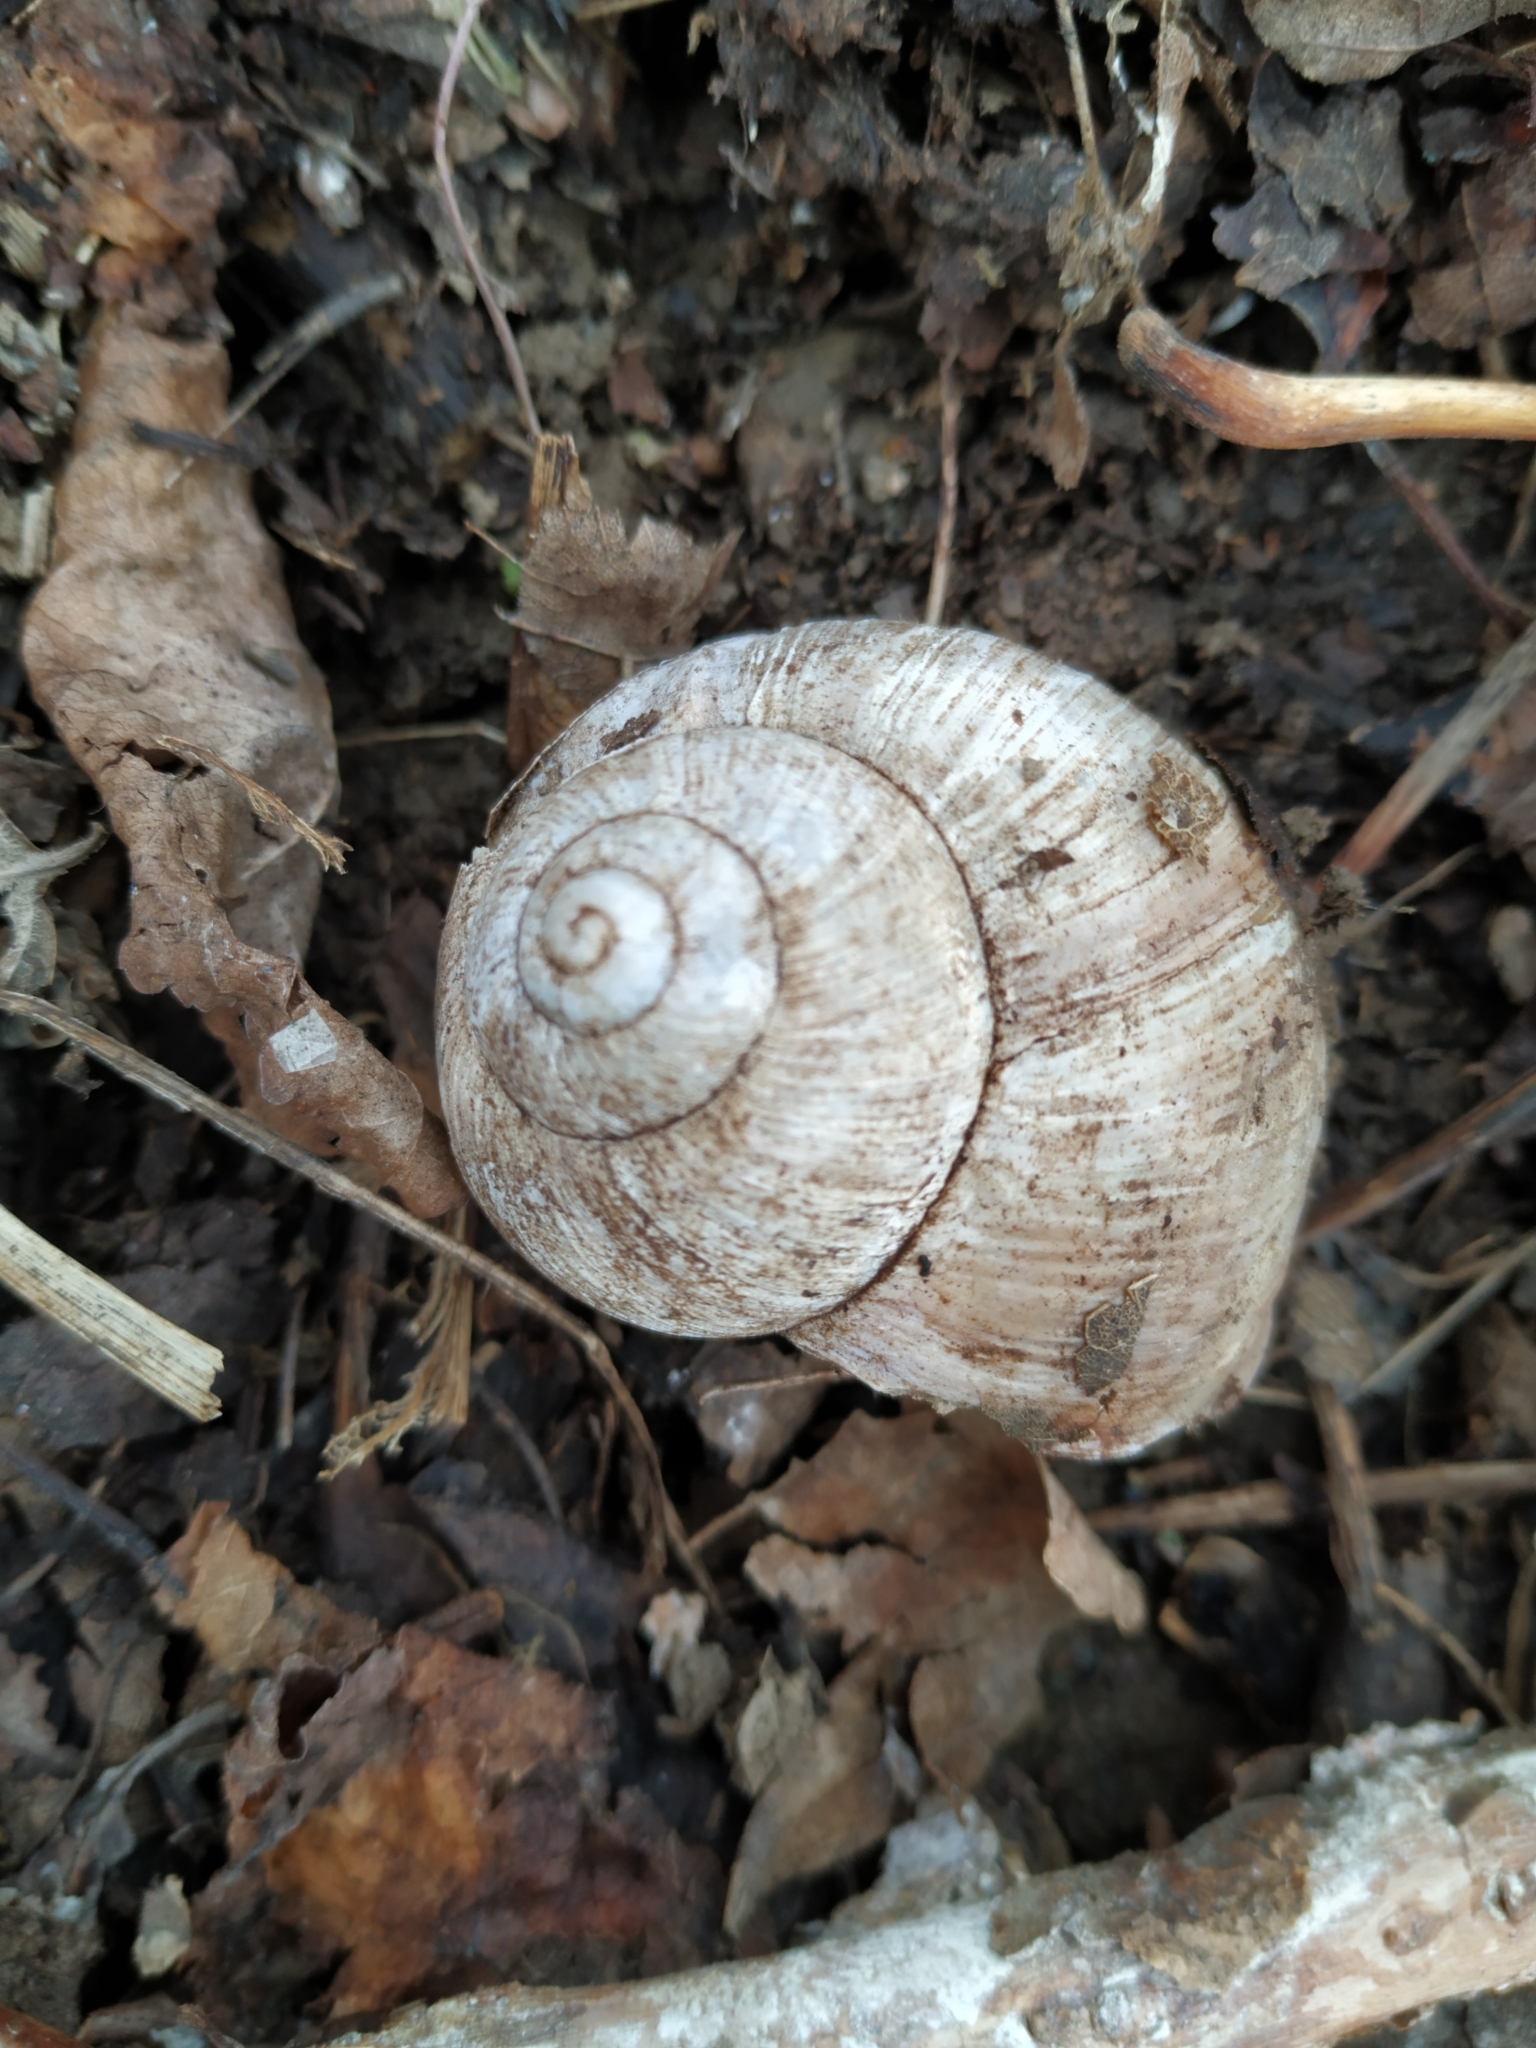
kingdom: Animalia
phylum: Mollusca
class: Gastropoda
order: Stylommatophora
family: Helicidae
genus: Helix
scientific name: Helix pomatia
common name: Roman snail
